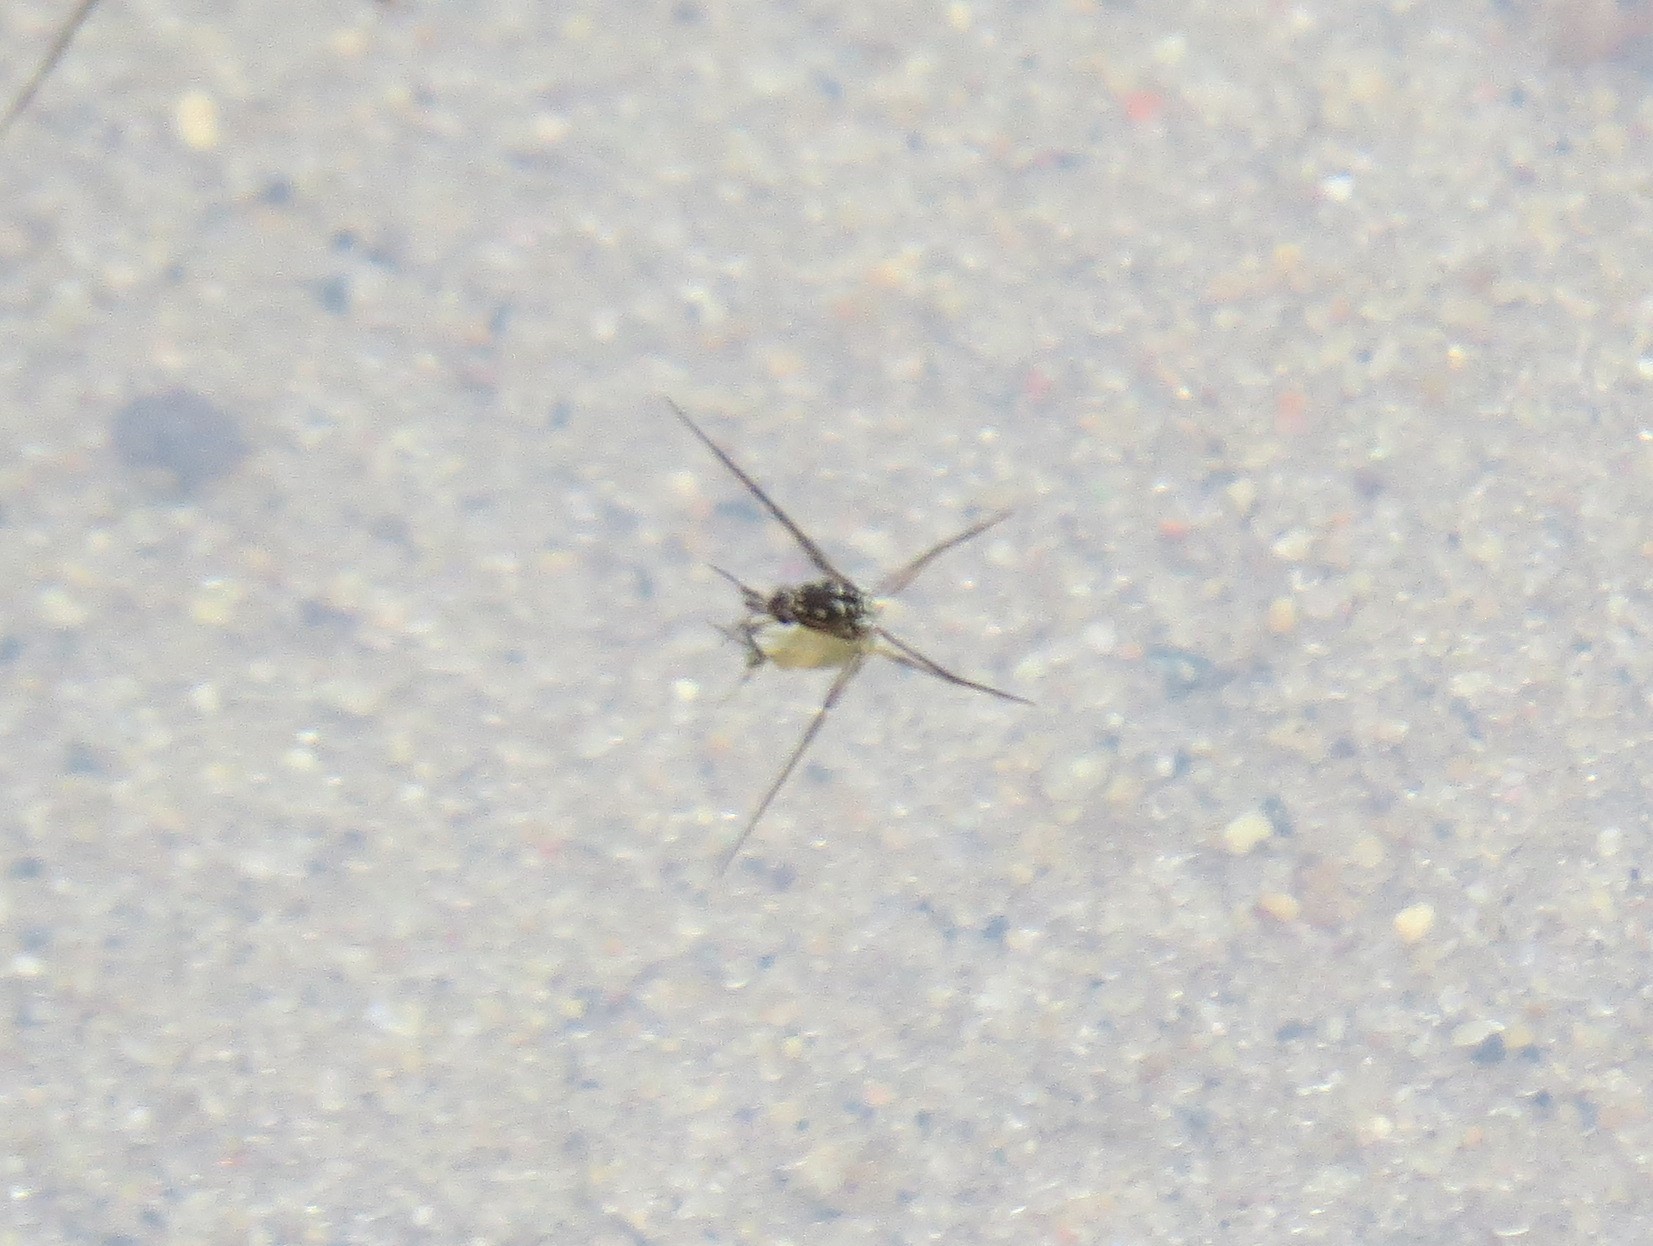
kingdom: Animalia
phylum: Arthropoda
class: Insecta
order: Hemiptera
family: Gerridae
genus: Trepobates
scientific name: Trepobates
